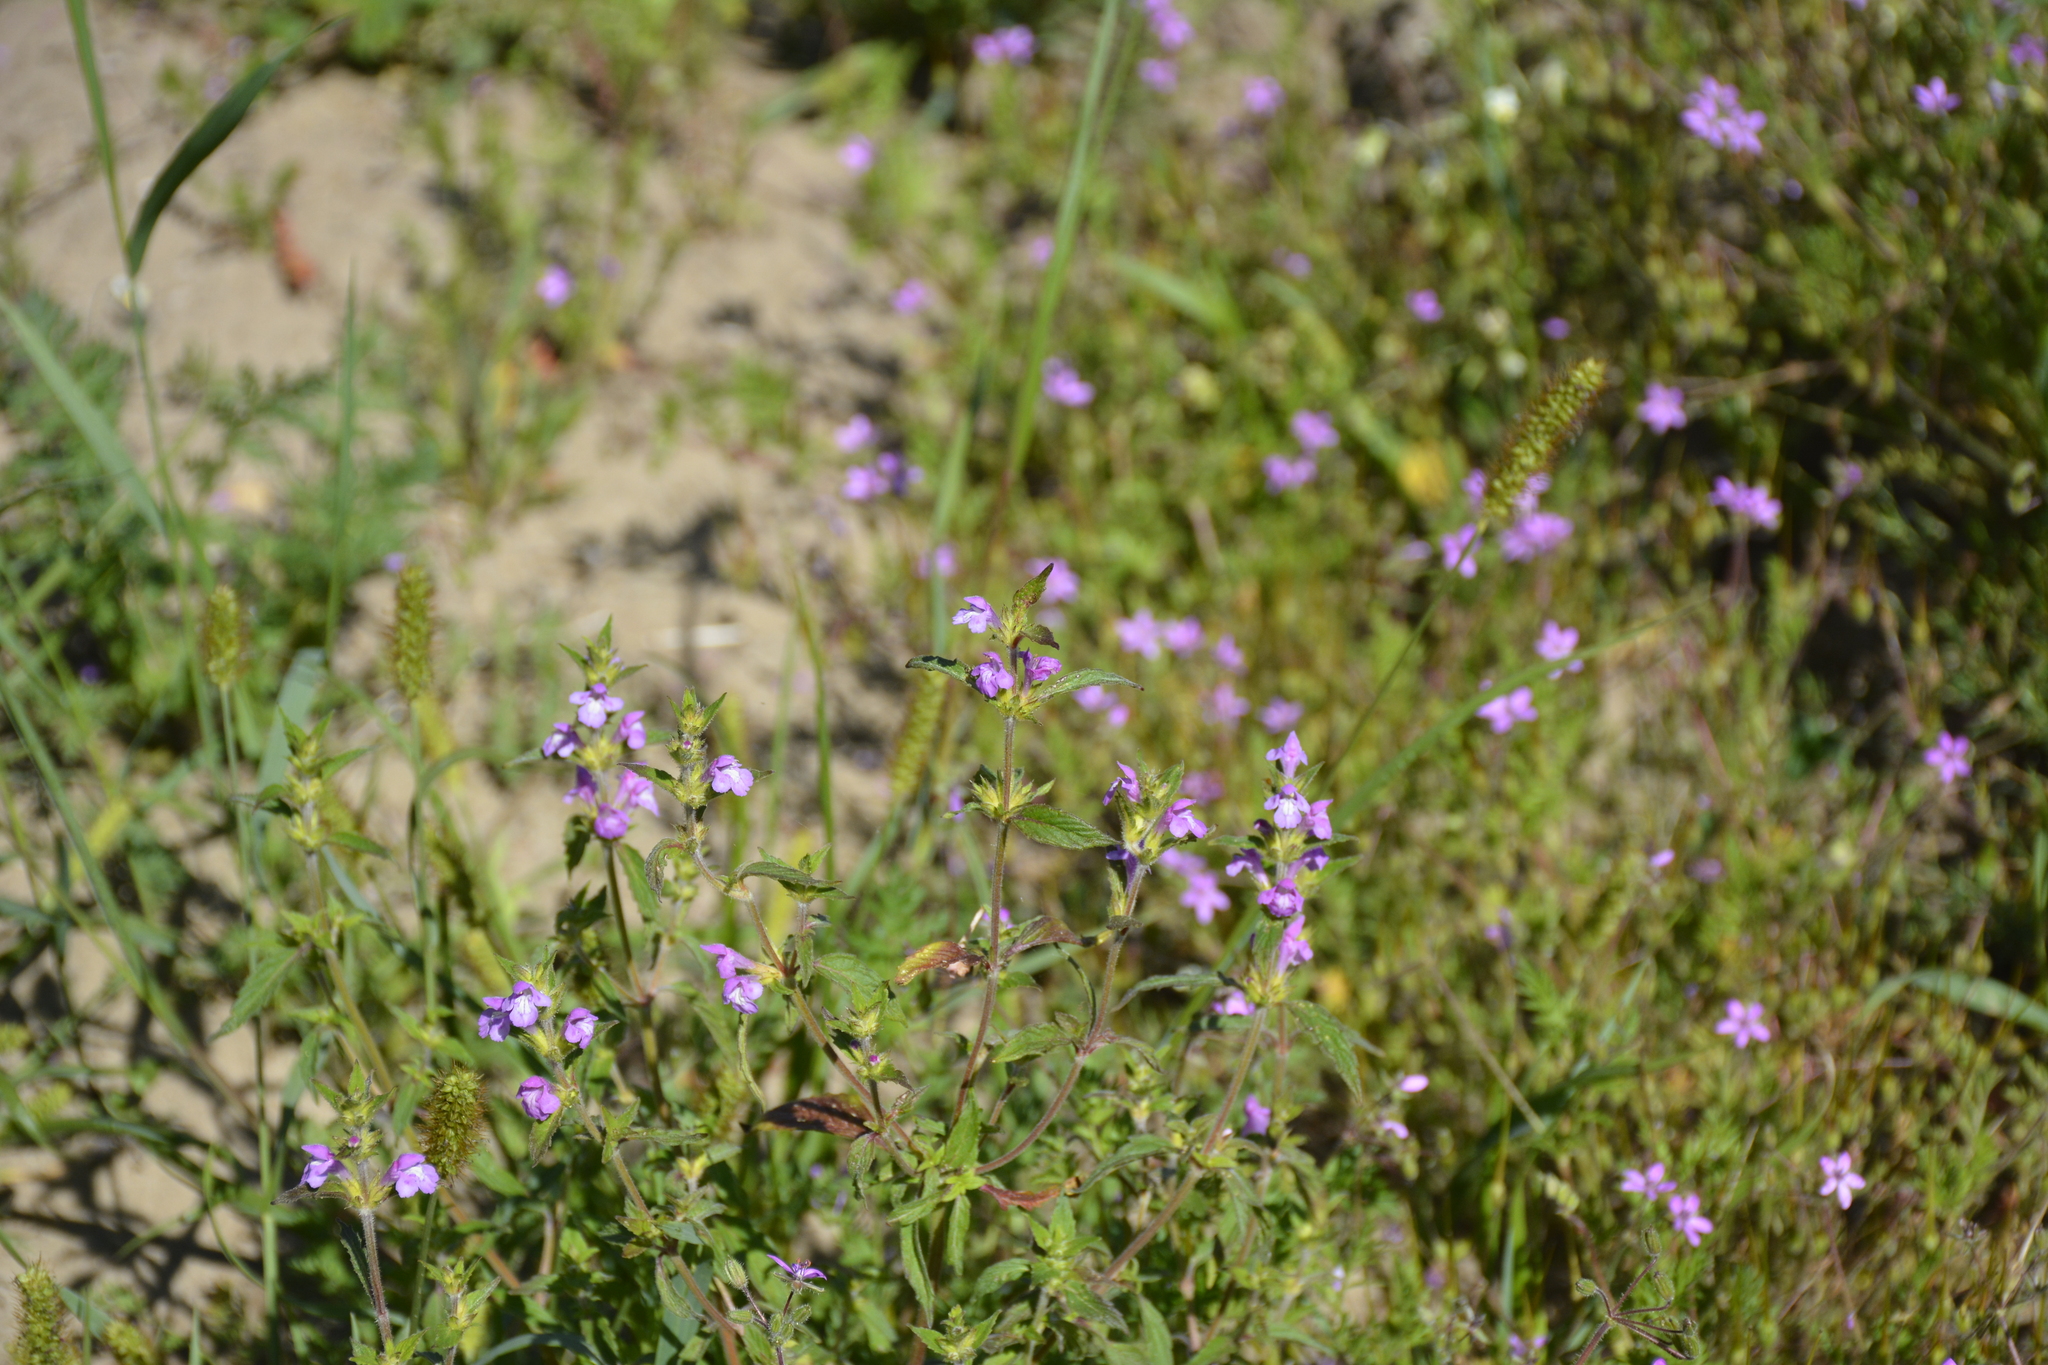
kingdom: Plantae
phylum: Tracheophyta
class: Magnoliopsida
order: Lamiales
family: Lamiaceae
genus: Galeopsis
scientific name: Galeopsis ladanum
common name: Broad-leaved hemp-nettle
